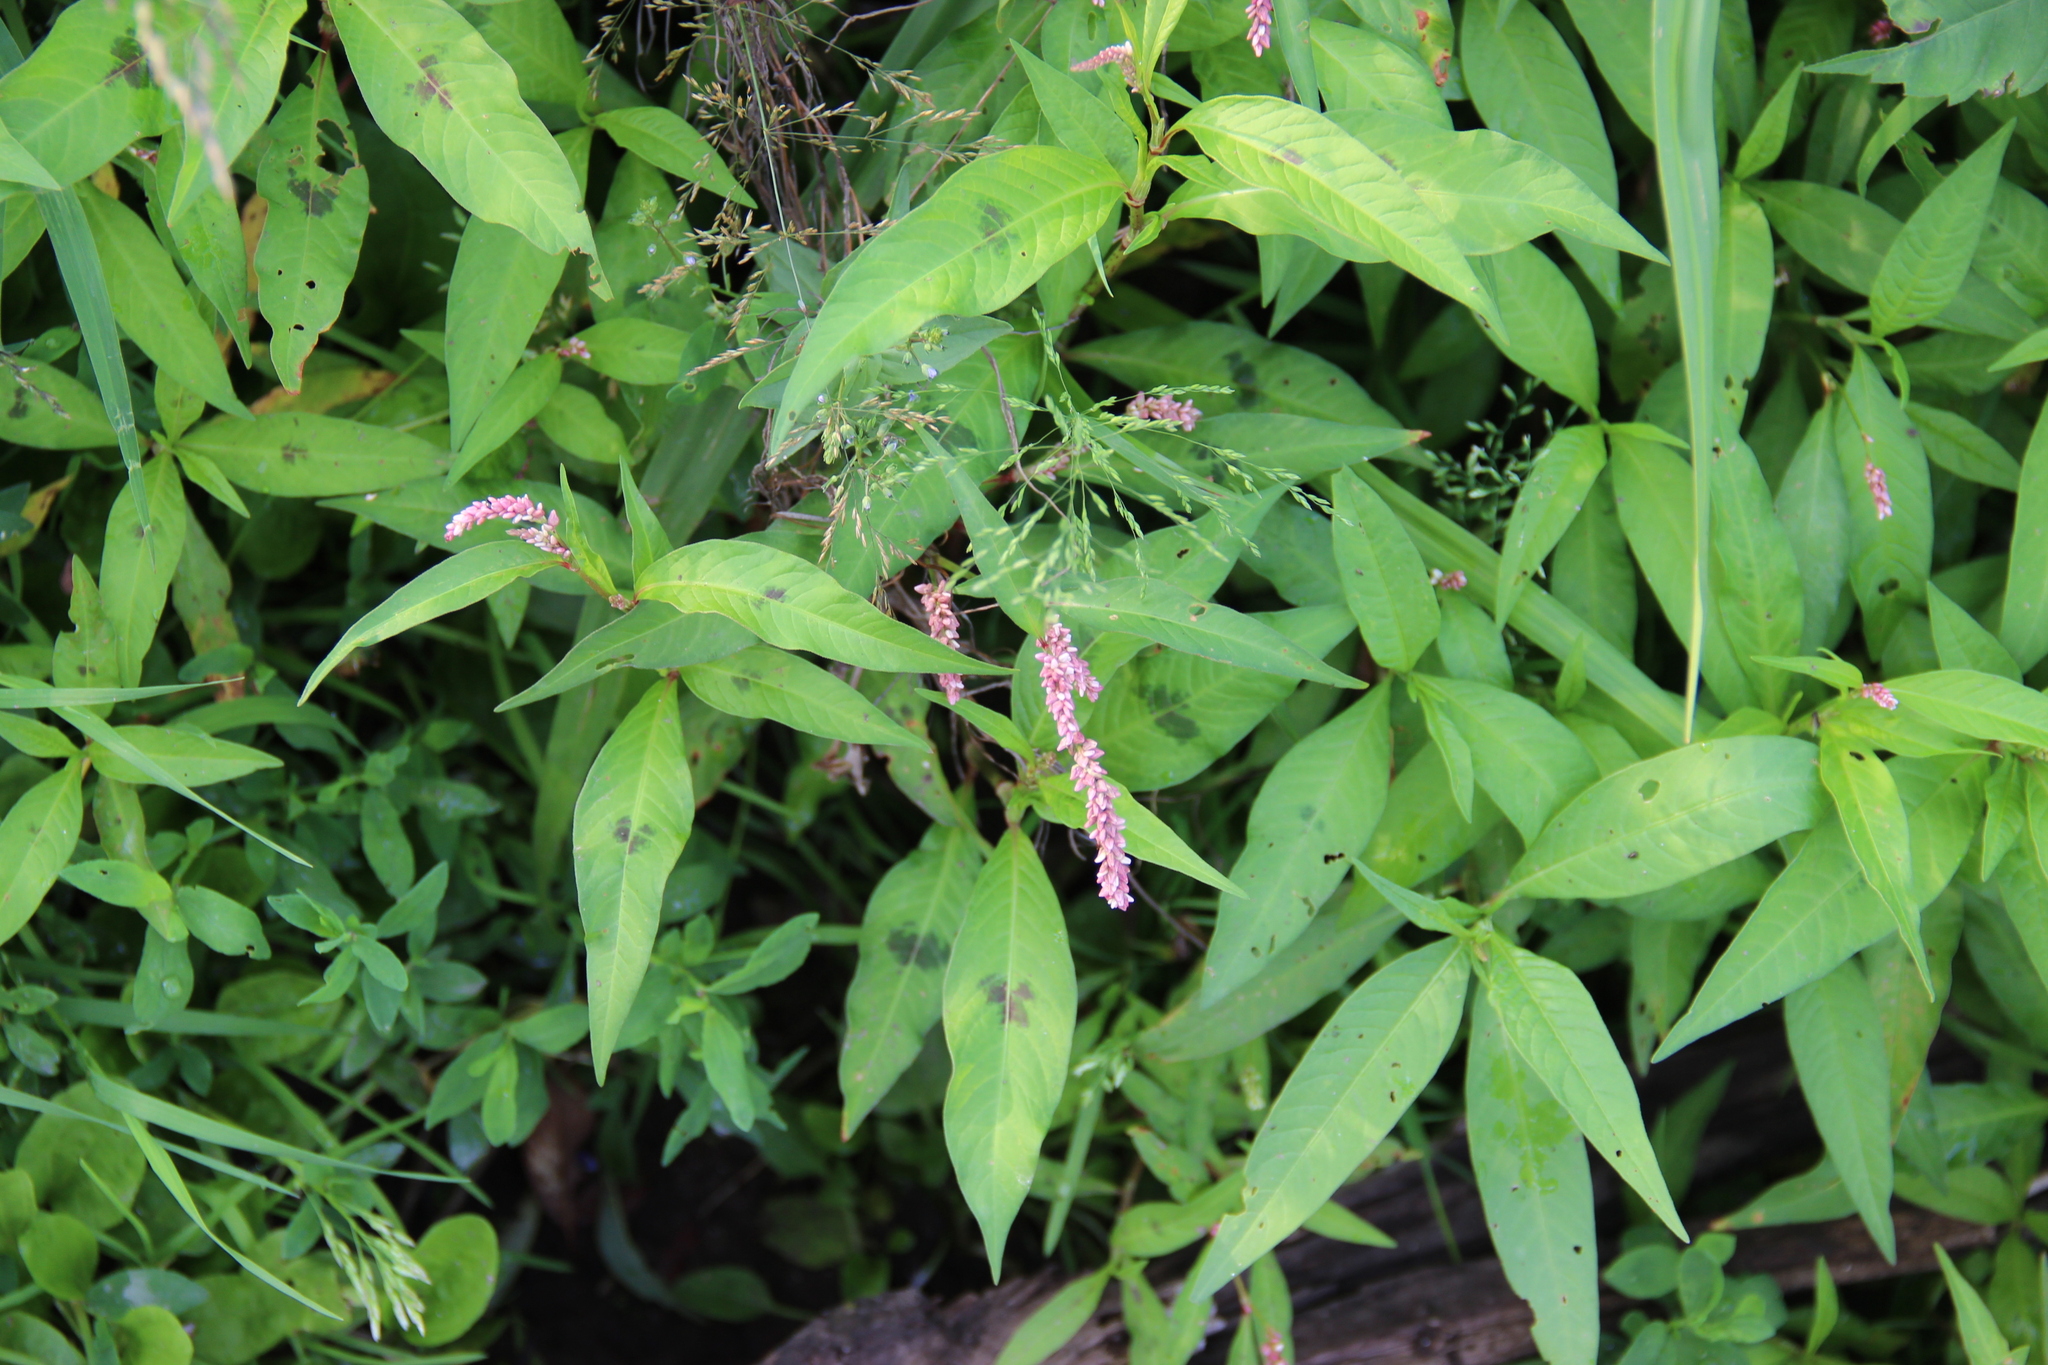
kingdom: Plantae
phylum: Tracheophyta
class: Magnoliopsida
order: Caryophyllales
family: Polygonaceae
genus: Persicaria
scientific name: Persicaria maculosa
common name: Redshank
